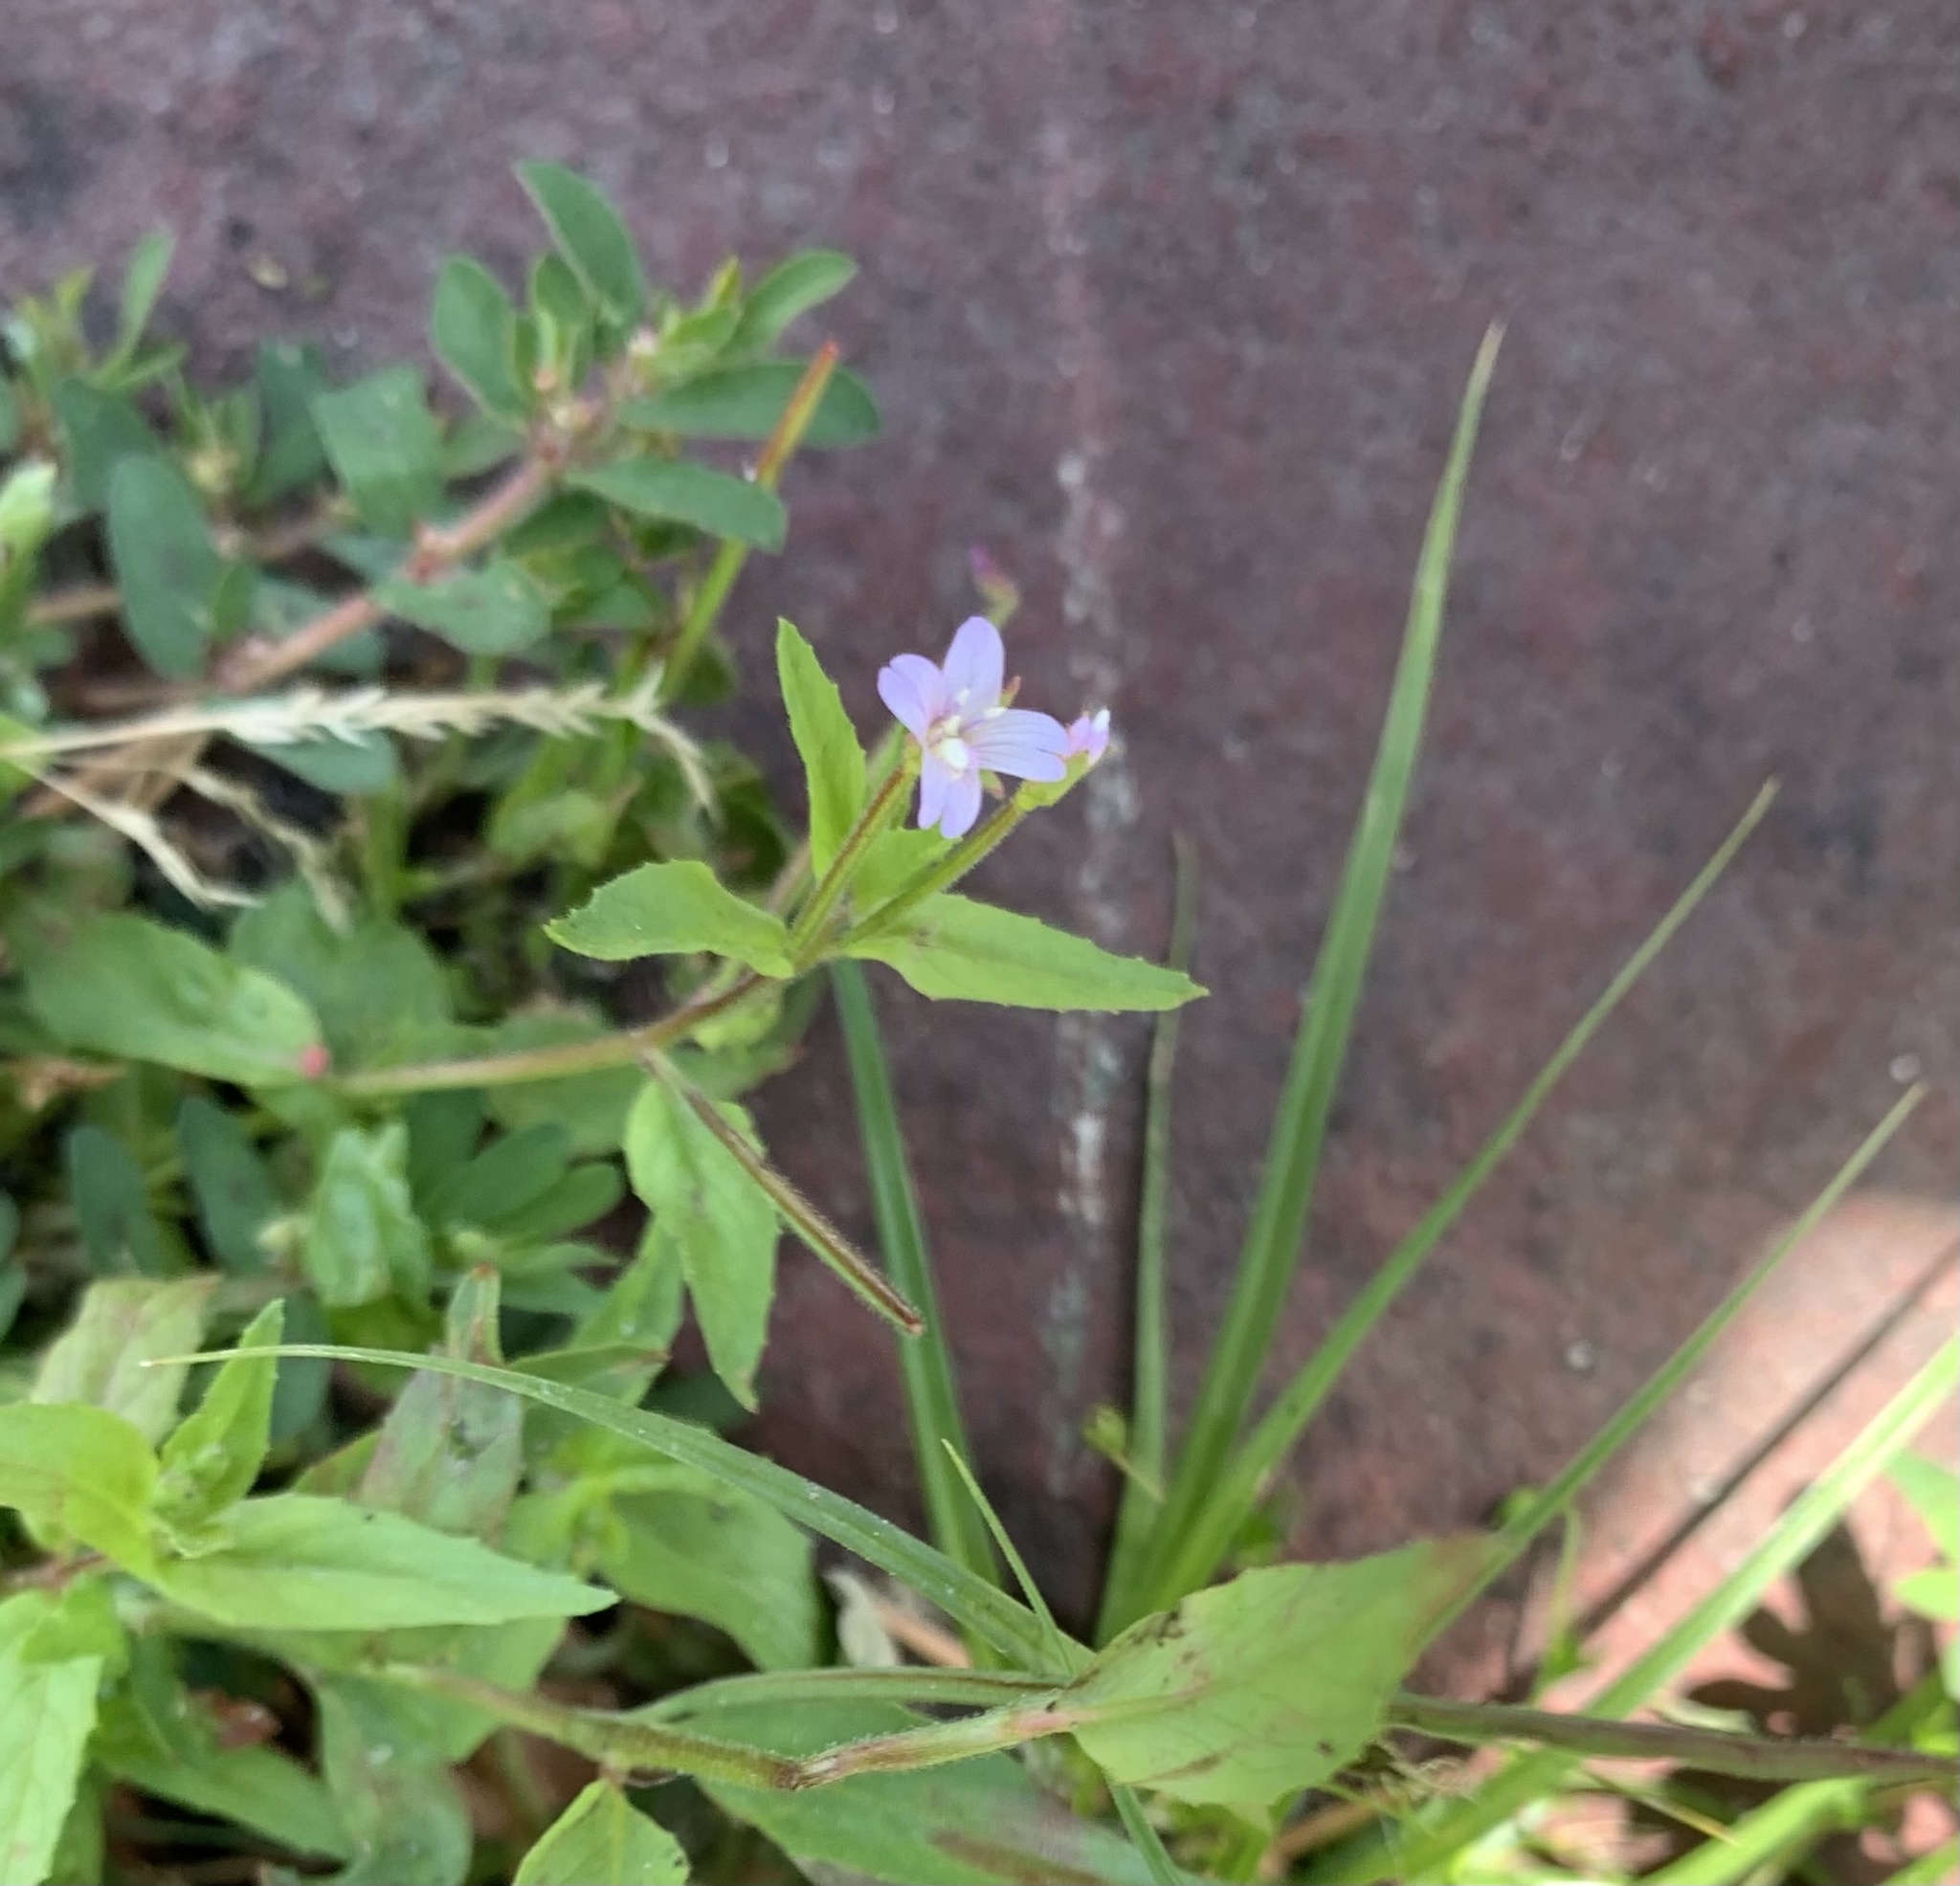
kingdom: Plantae
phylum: Tracheophyta
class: Magnoliopsida
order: Myrtales
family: Onagraceae
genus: Epilobium
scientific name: Epilobium ciliatum
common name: American willowherb
